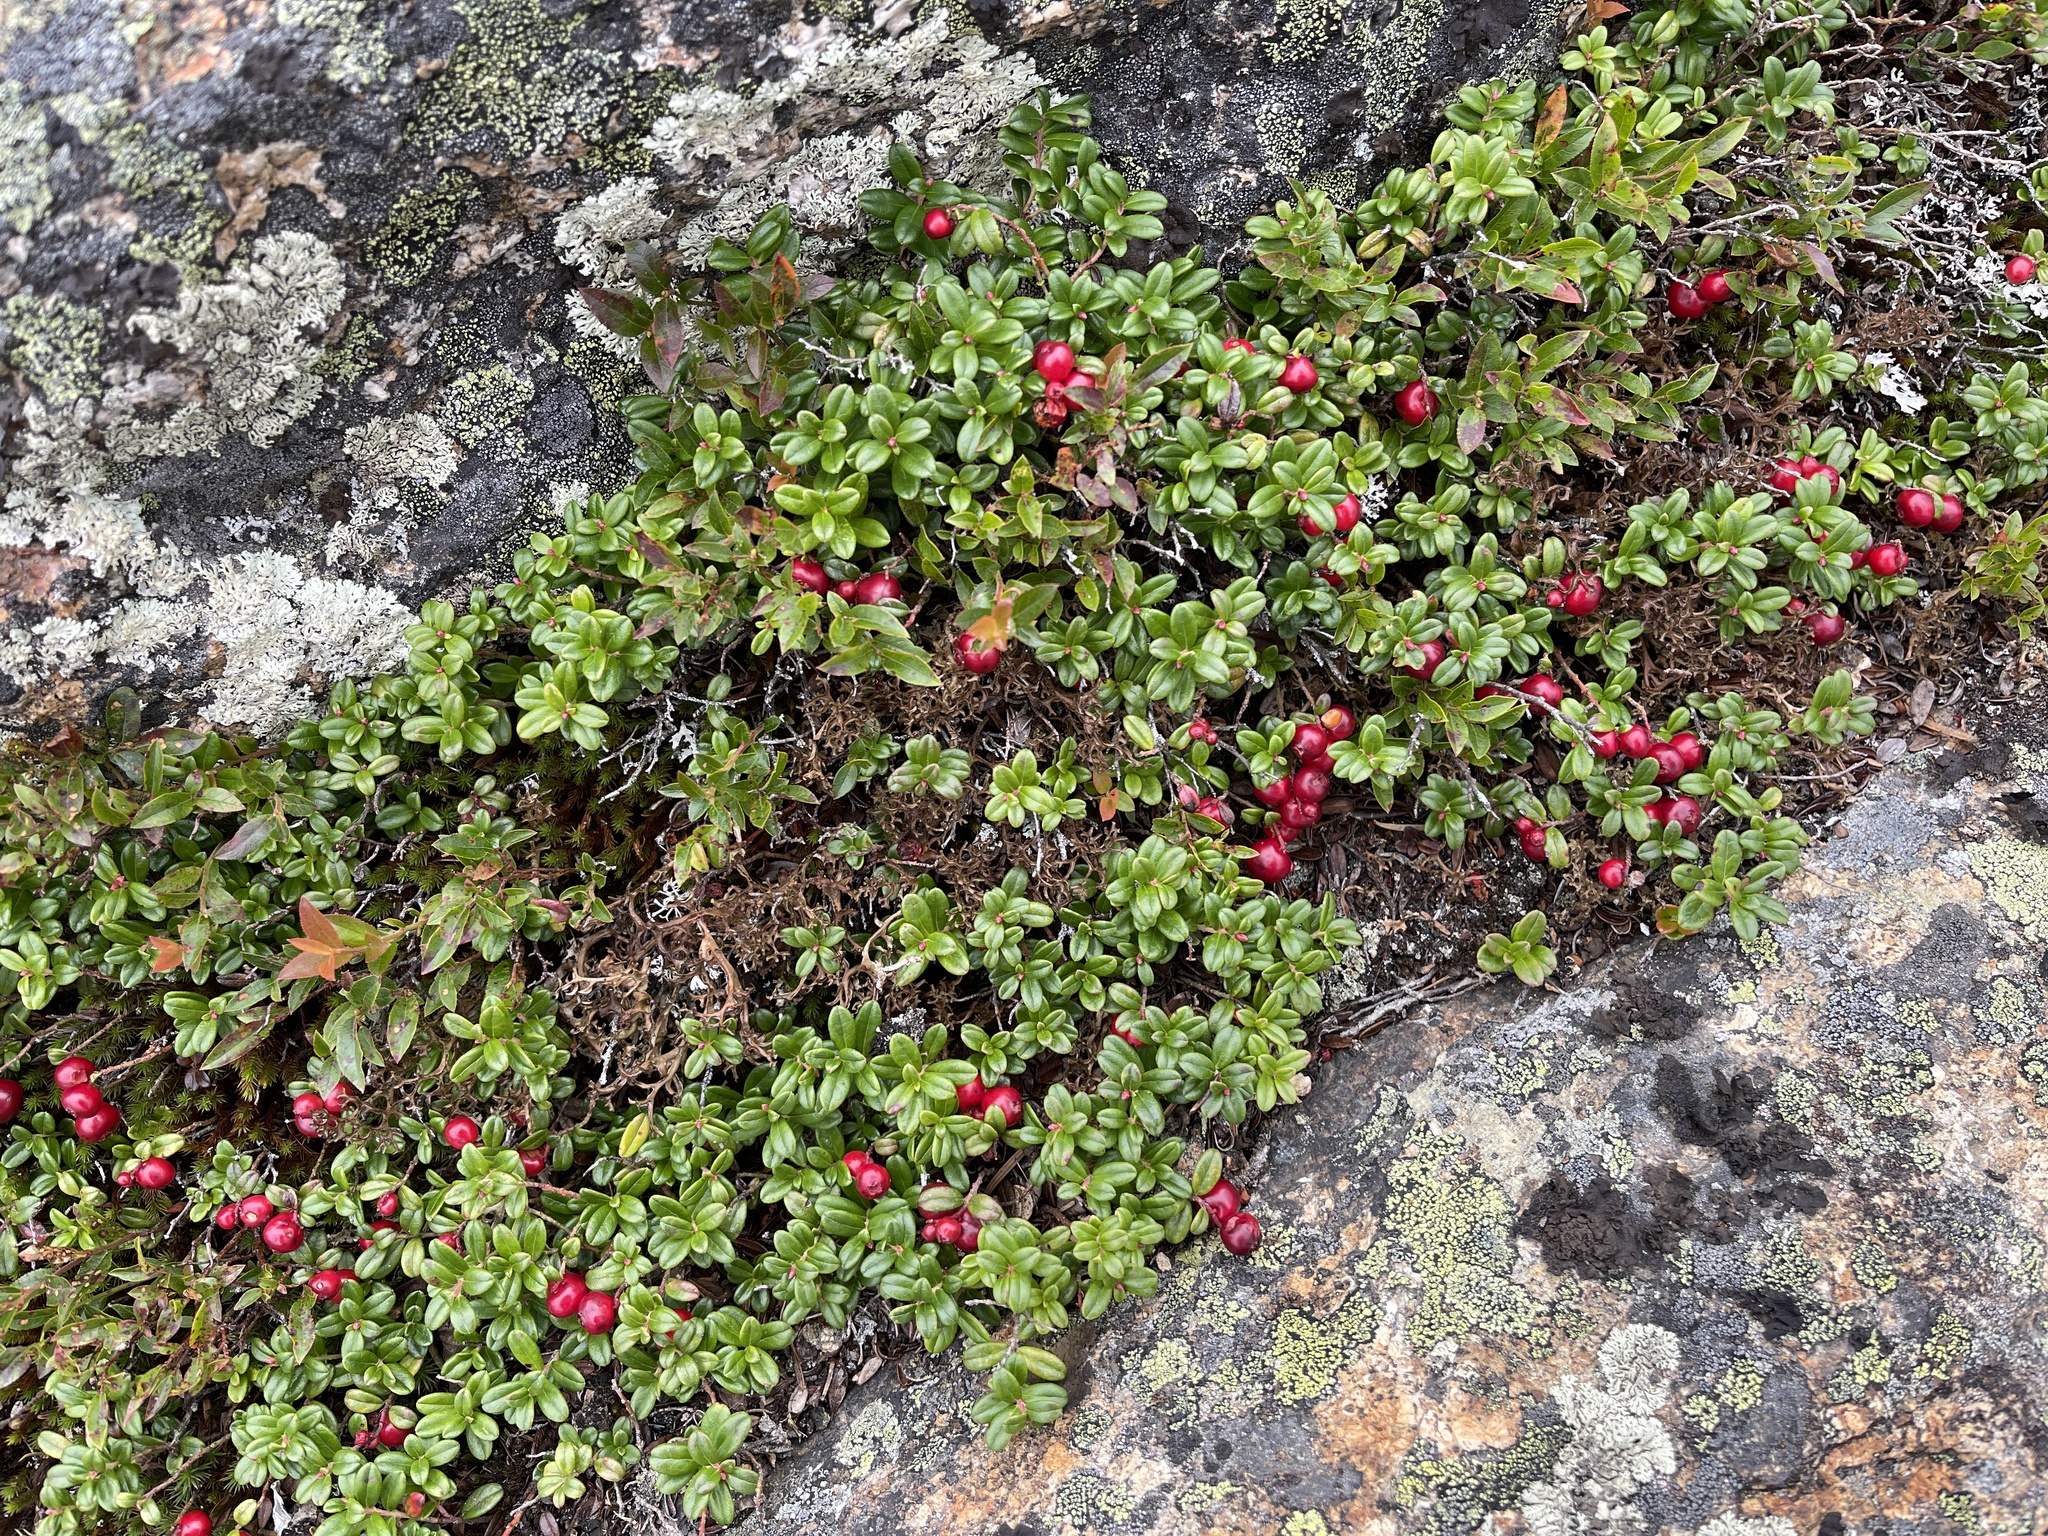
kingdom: Plantae
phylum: Tracheophyta
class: Magnoliopsida
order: Ericales
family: Ericaceae
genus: Vaccinium
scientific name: Vaccinium vitis-idaea
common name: Cowberry
